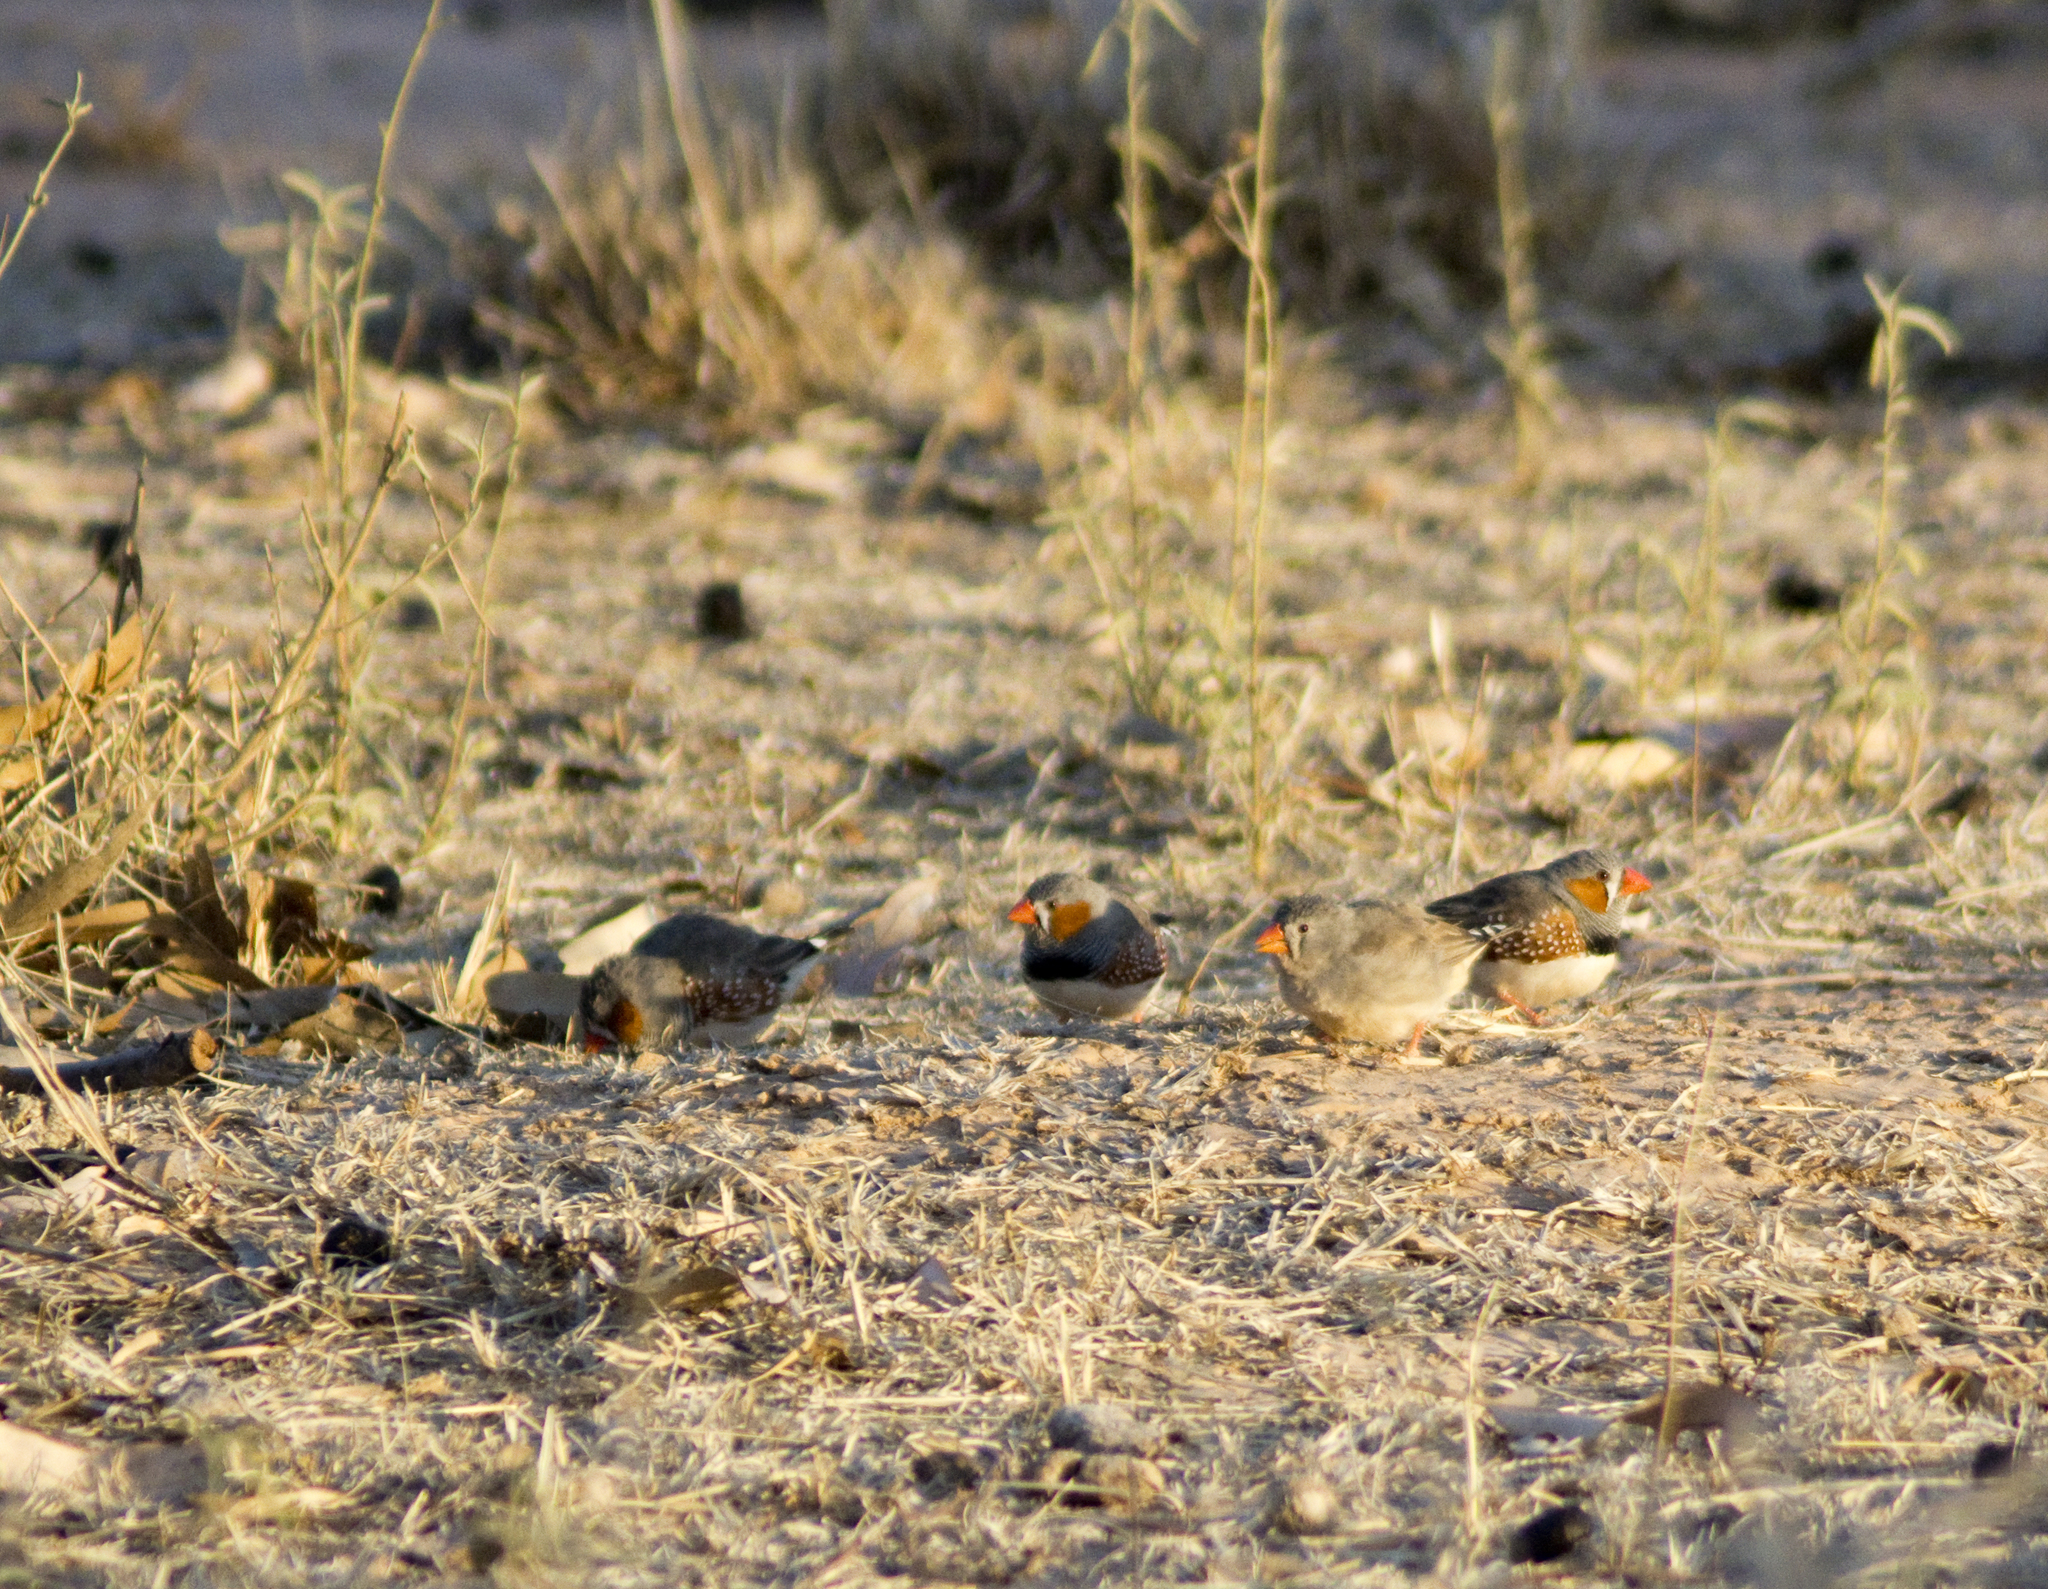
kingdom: Animalia
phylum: Chordata
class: Aves
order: Passeriformes
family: Estrildidae
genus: Taeniopygia
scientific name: Taeniopygia guttata
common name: Zebra finch
